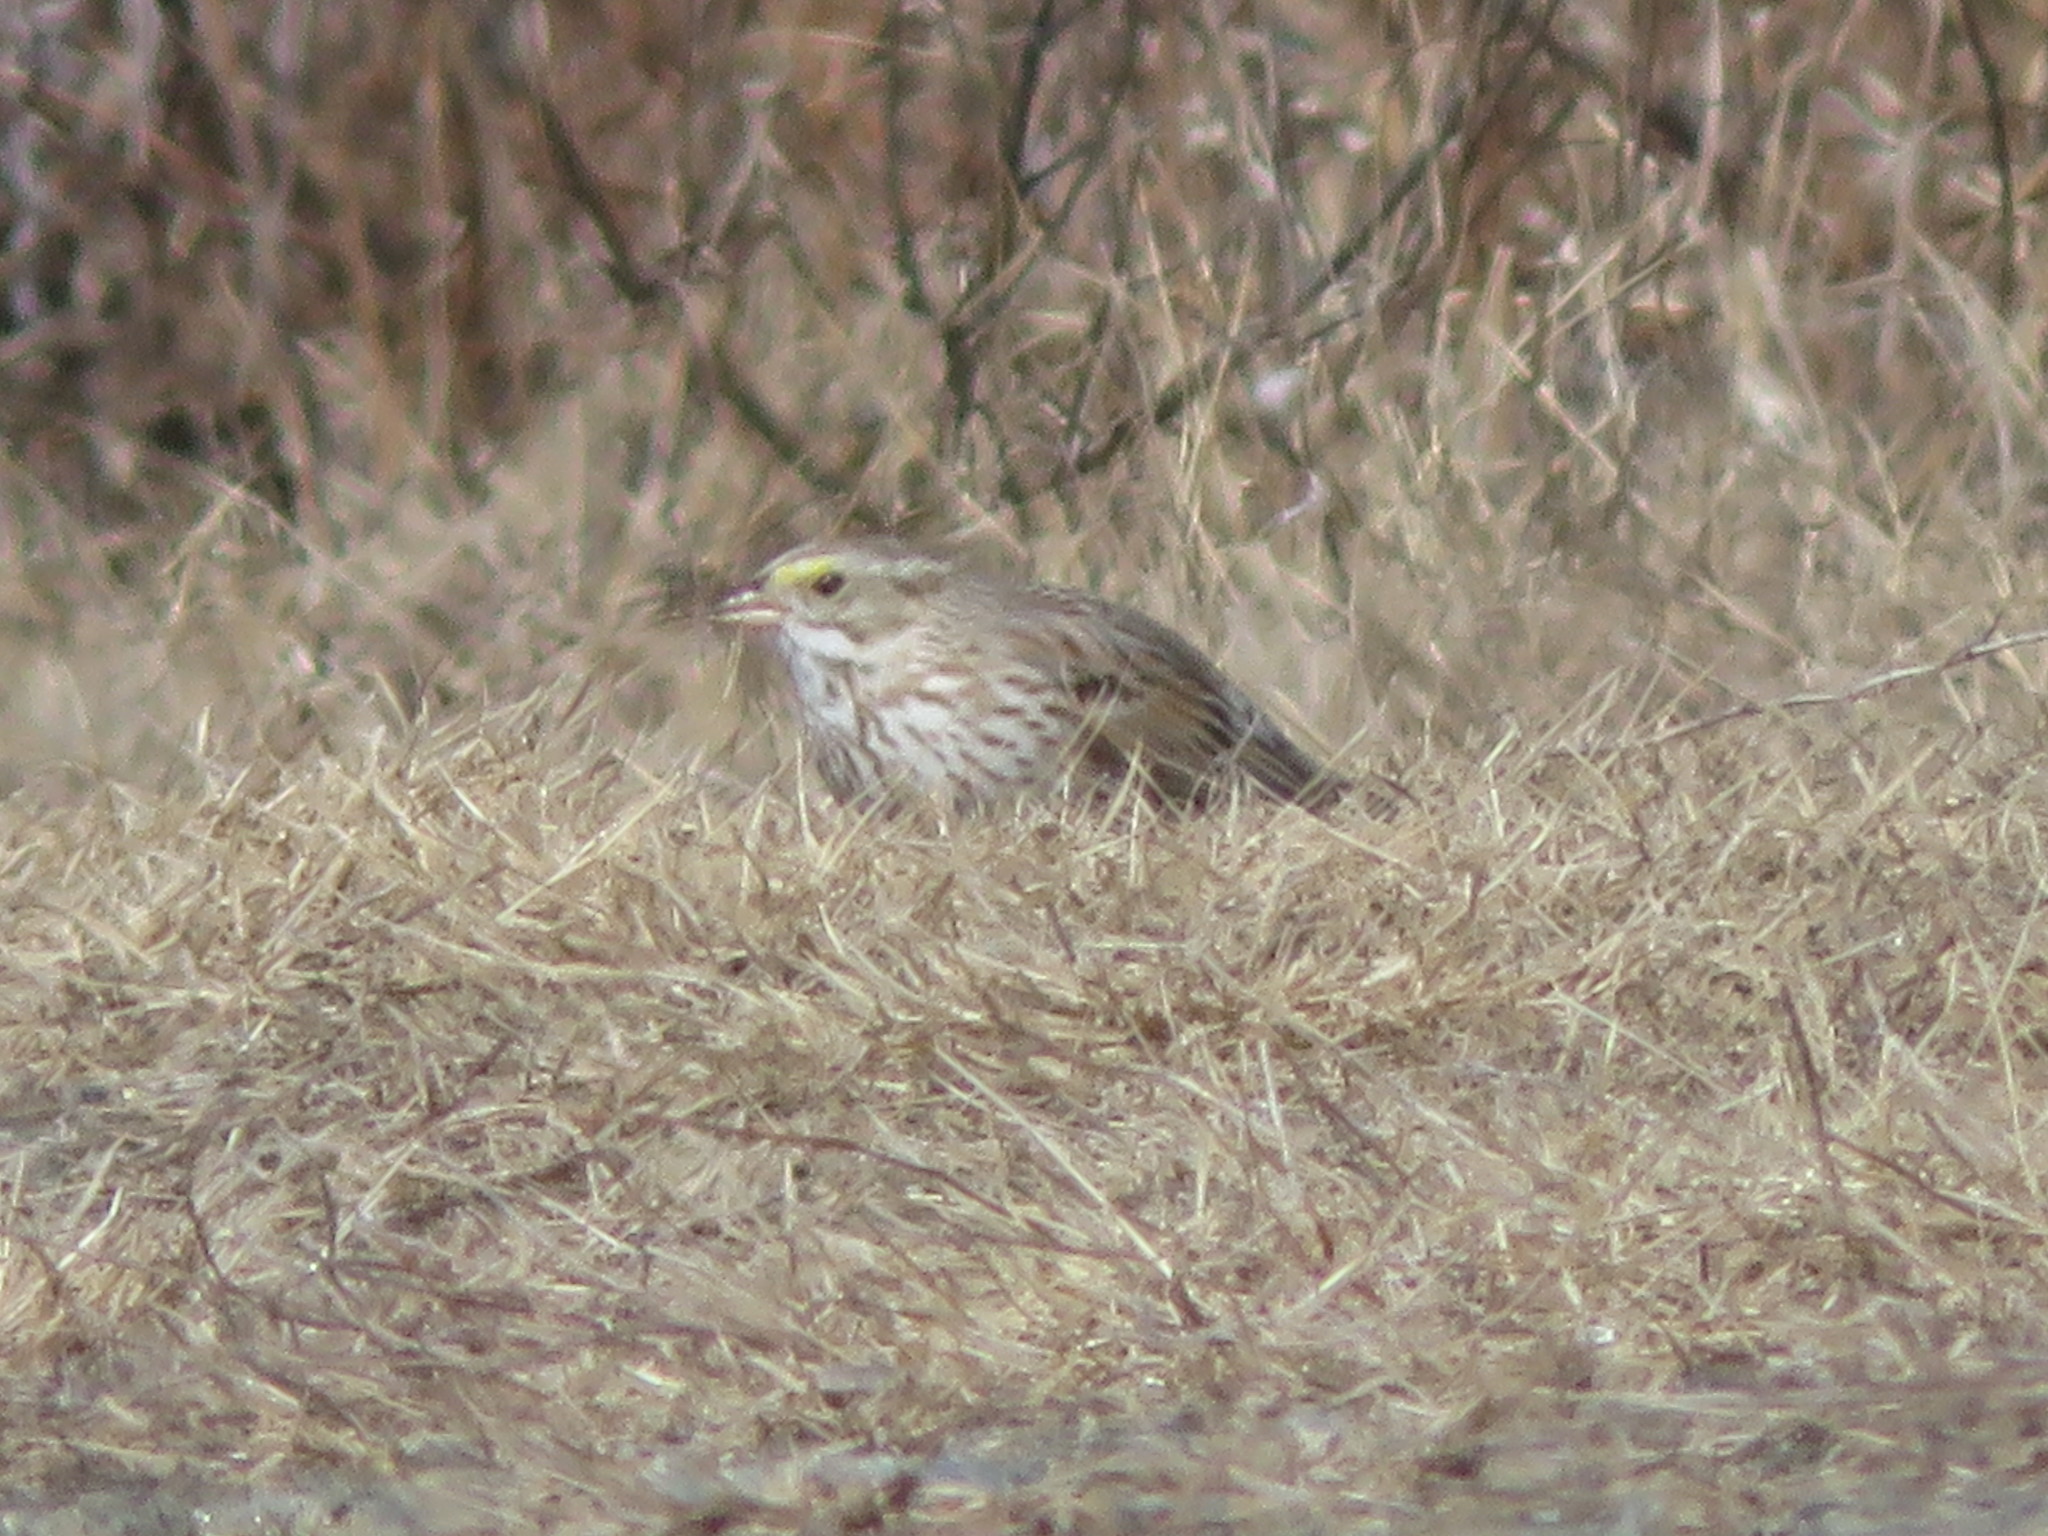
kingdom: Animalia
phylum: Chordata
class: Aves
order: Passeriformes
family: Passerellidae
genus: Passerculus
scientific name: Passerculus sandwichensis
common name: Savannah sparrow
